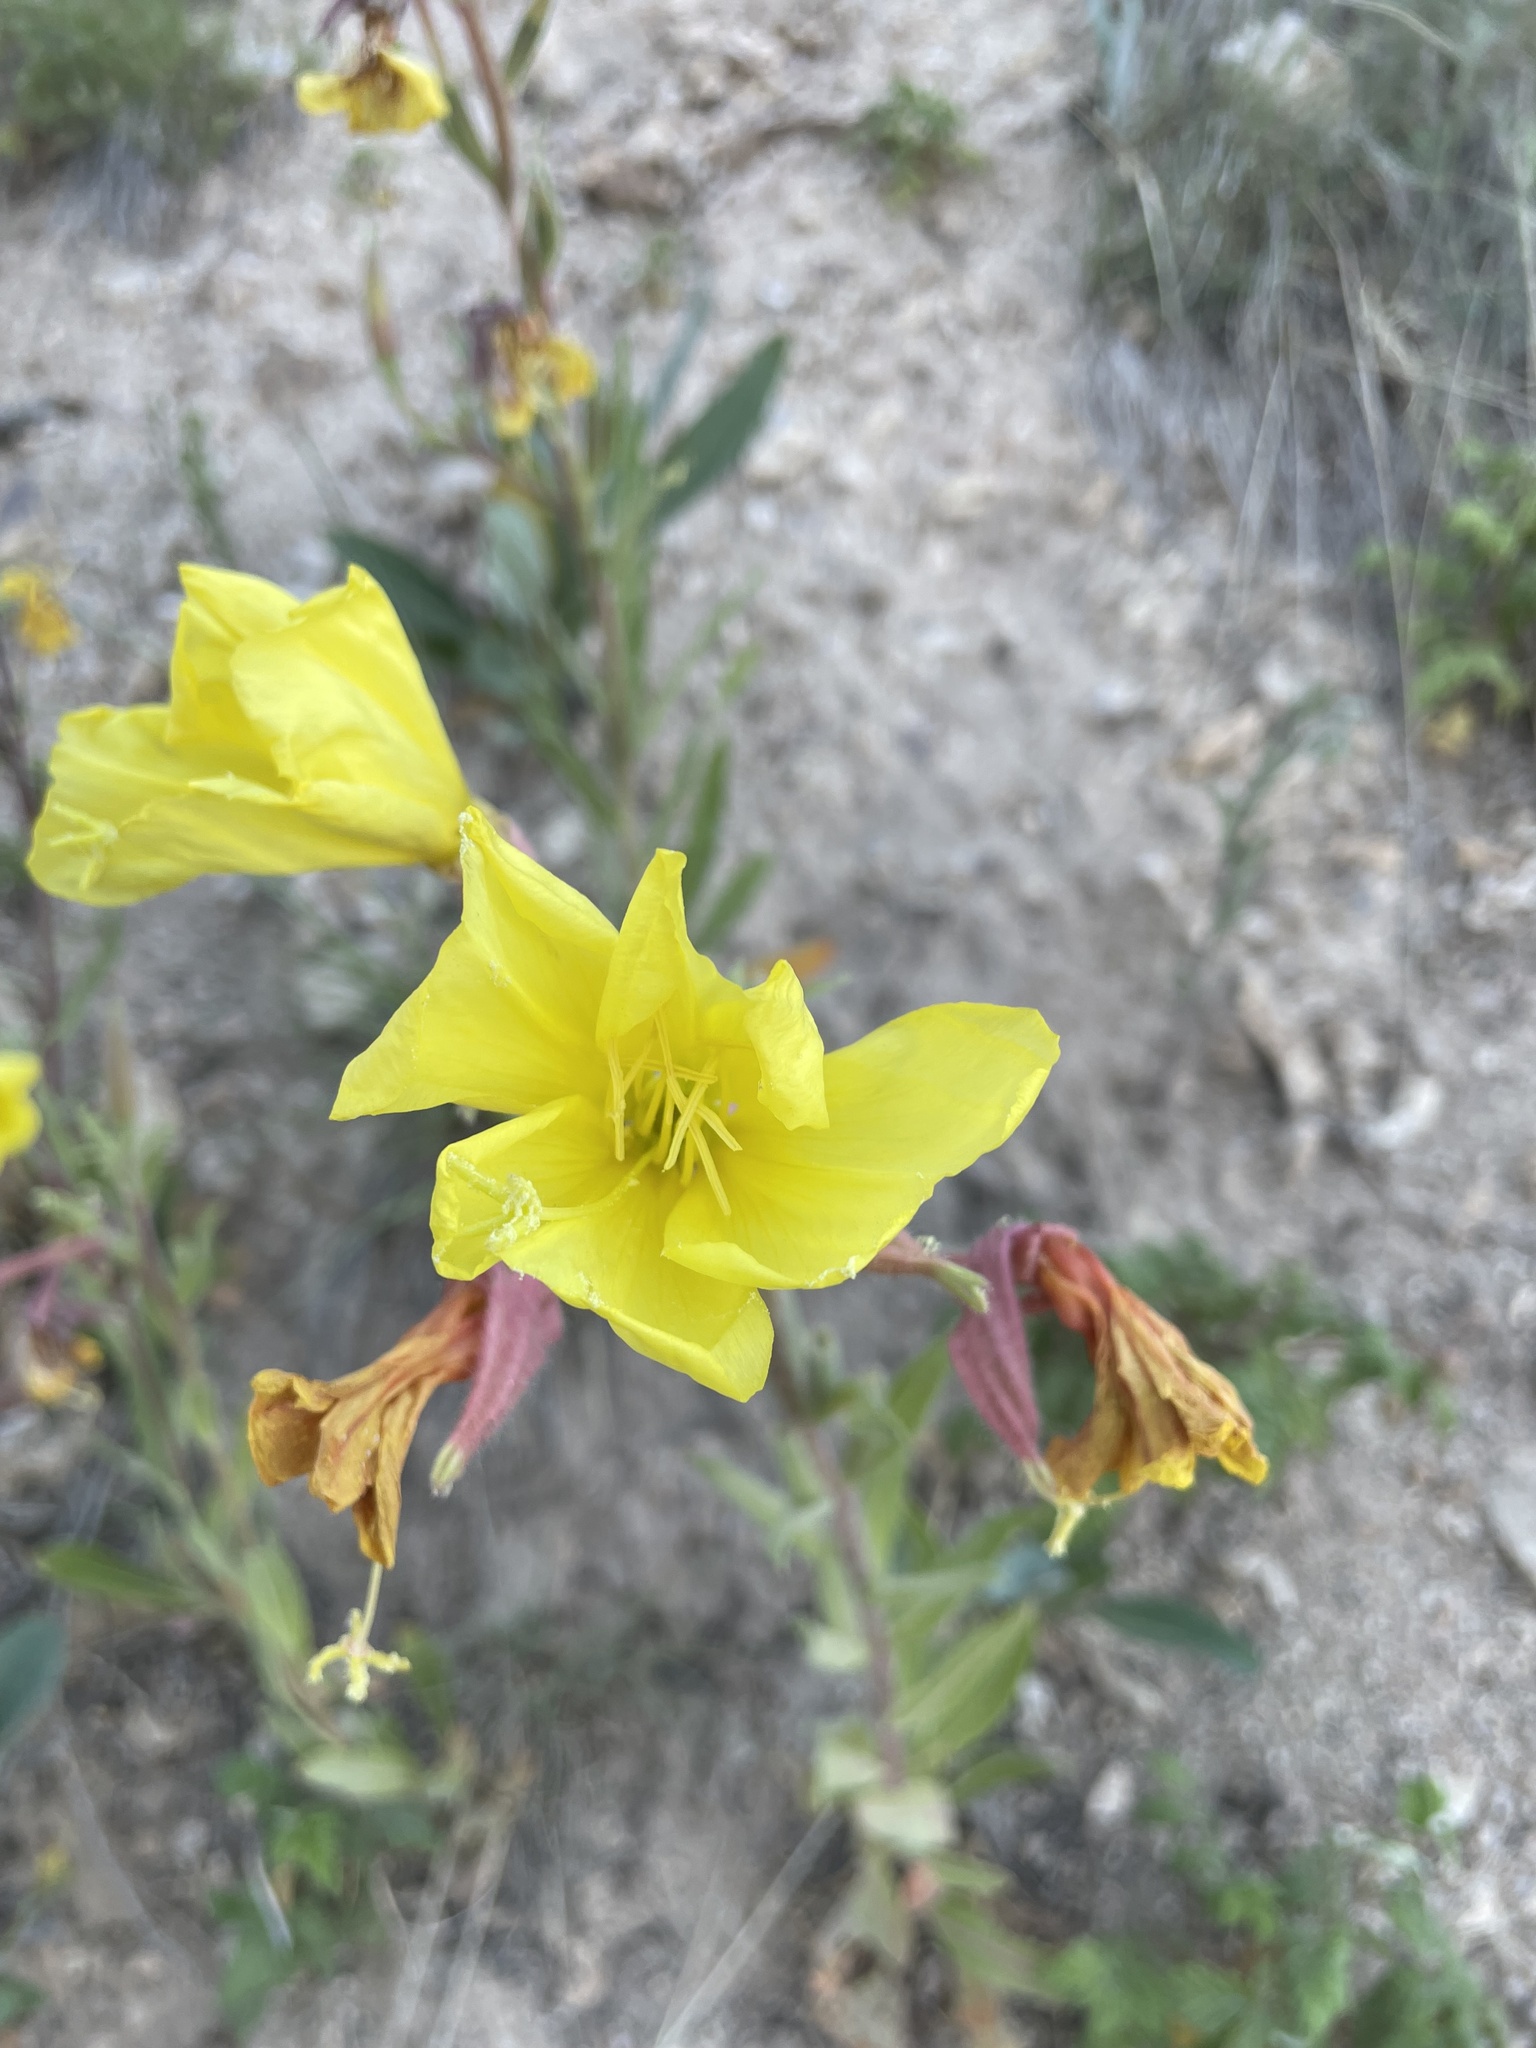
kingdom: Plantae
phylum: Tracheophyta
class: Magnoliopsida
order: Myrtales
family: Onagraceae
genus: Oenothera
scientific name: Oenothera elata
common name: Hooker's evening-primrose
